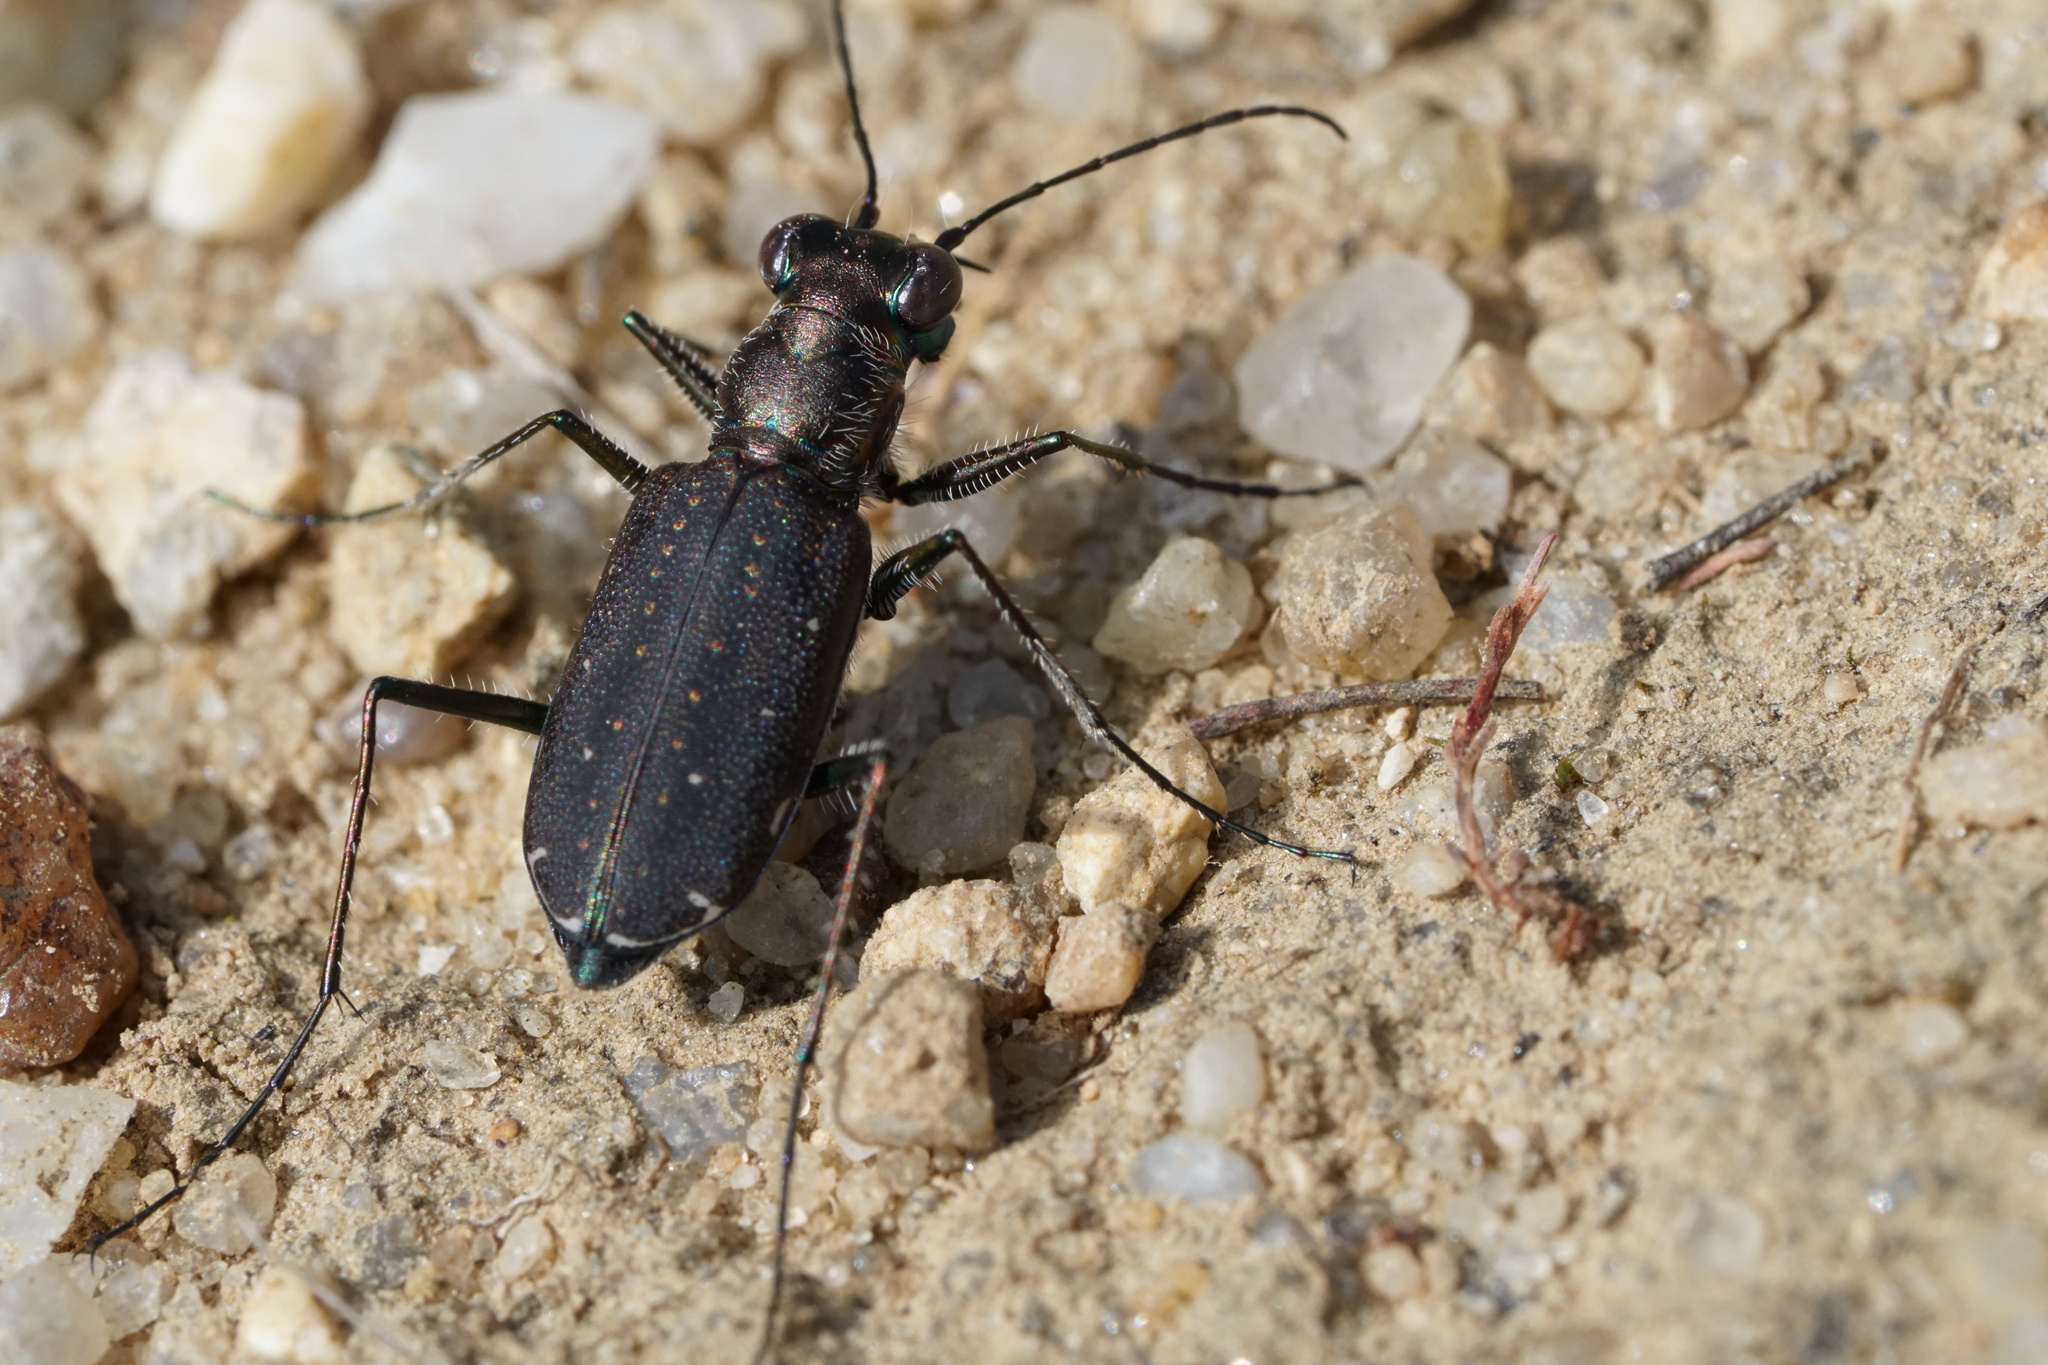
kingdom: Animalia
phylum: Arthropoda
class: Insecta
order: Coleoptera
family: Carabidae
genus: Cicindela
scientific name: Cicindela punctulata
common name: Punctured tiger beetle
